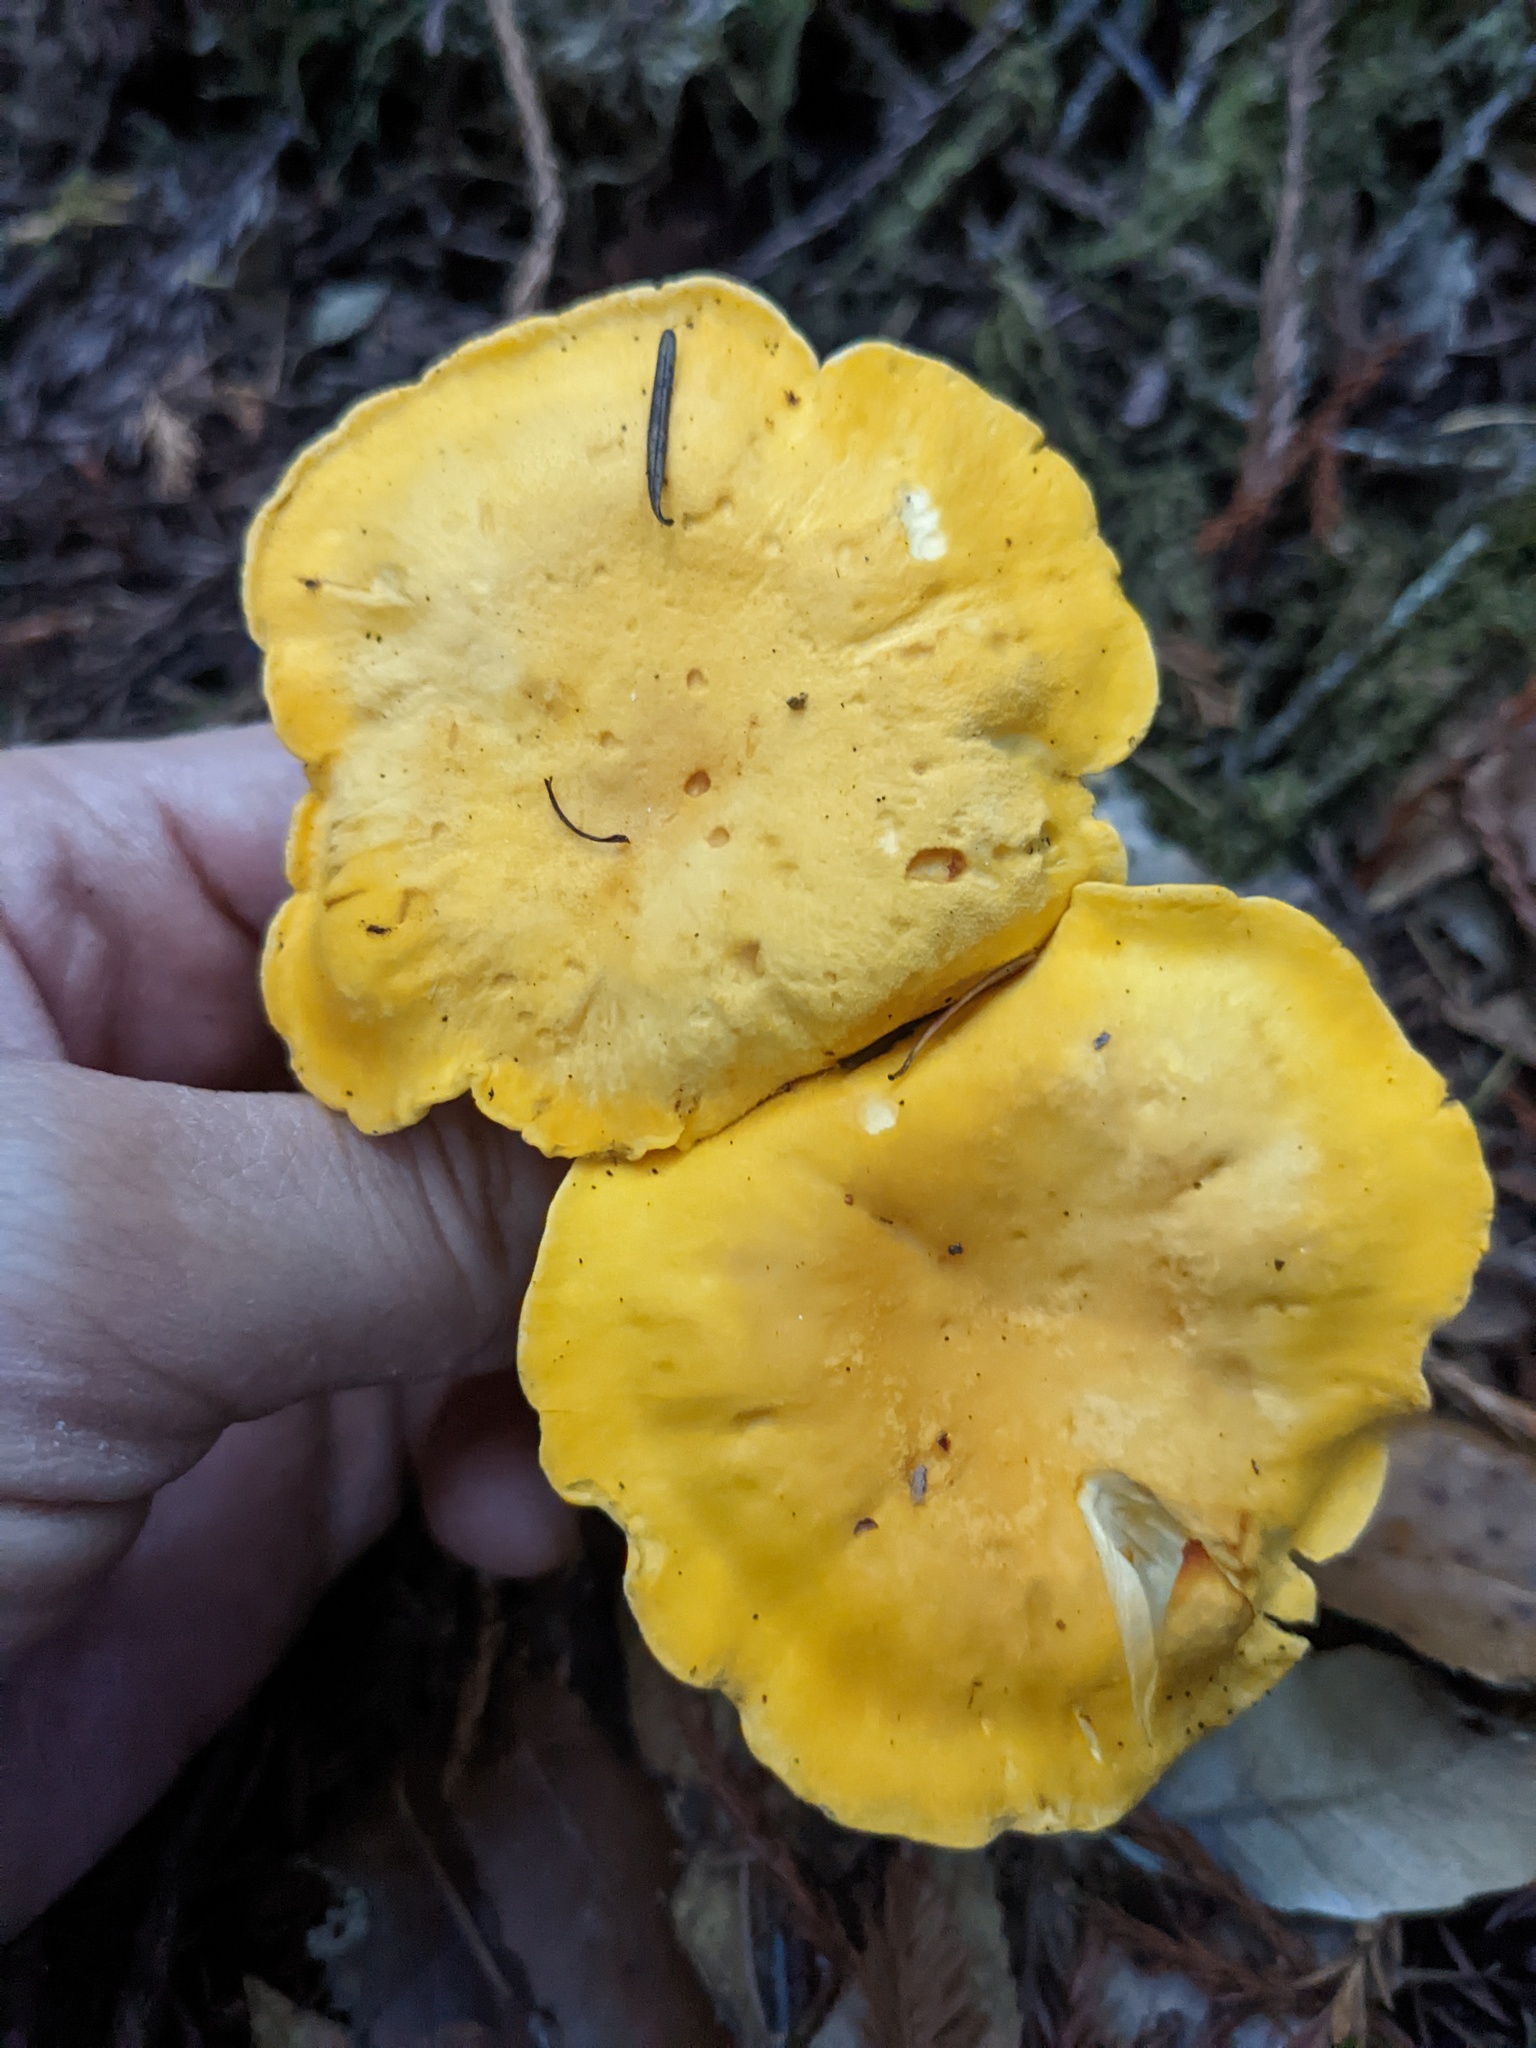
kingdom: Fungi
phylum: Basidiomycota
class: Agaricomycetes
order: Cantharellales
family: Hydnaceae
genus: Cantharellus
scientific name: Cantharellus cascadensis
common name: Cascade chanterelle
